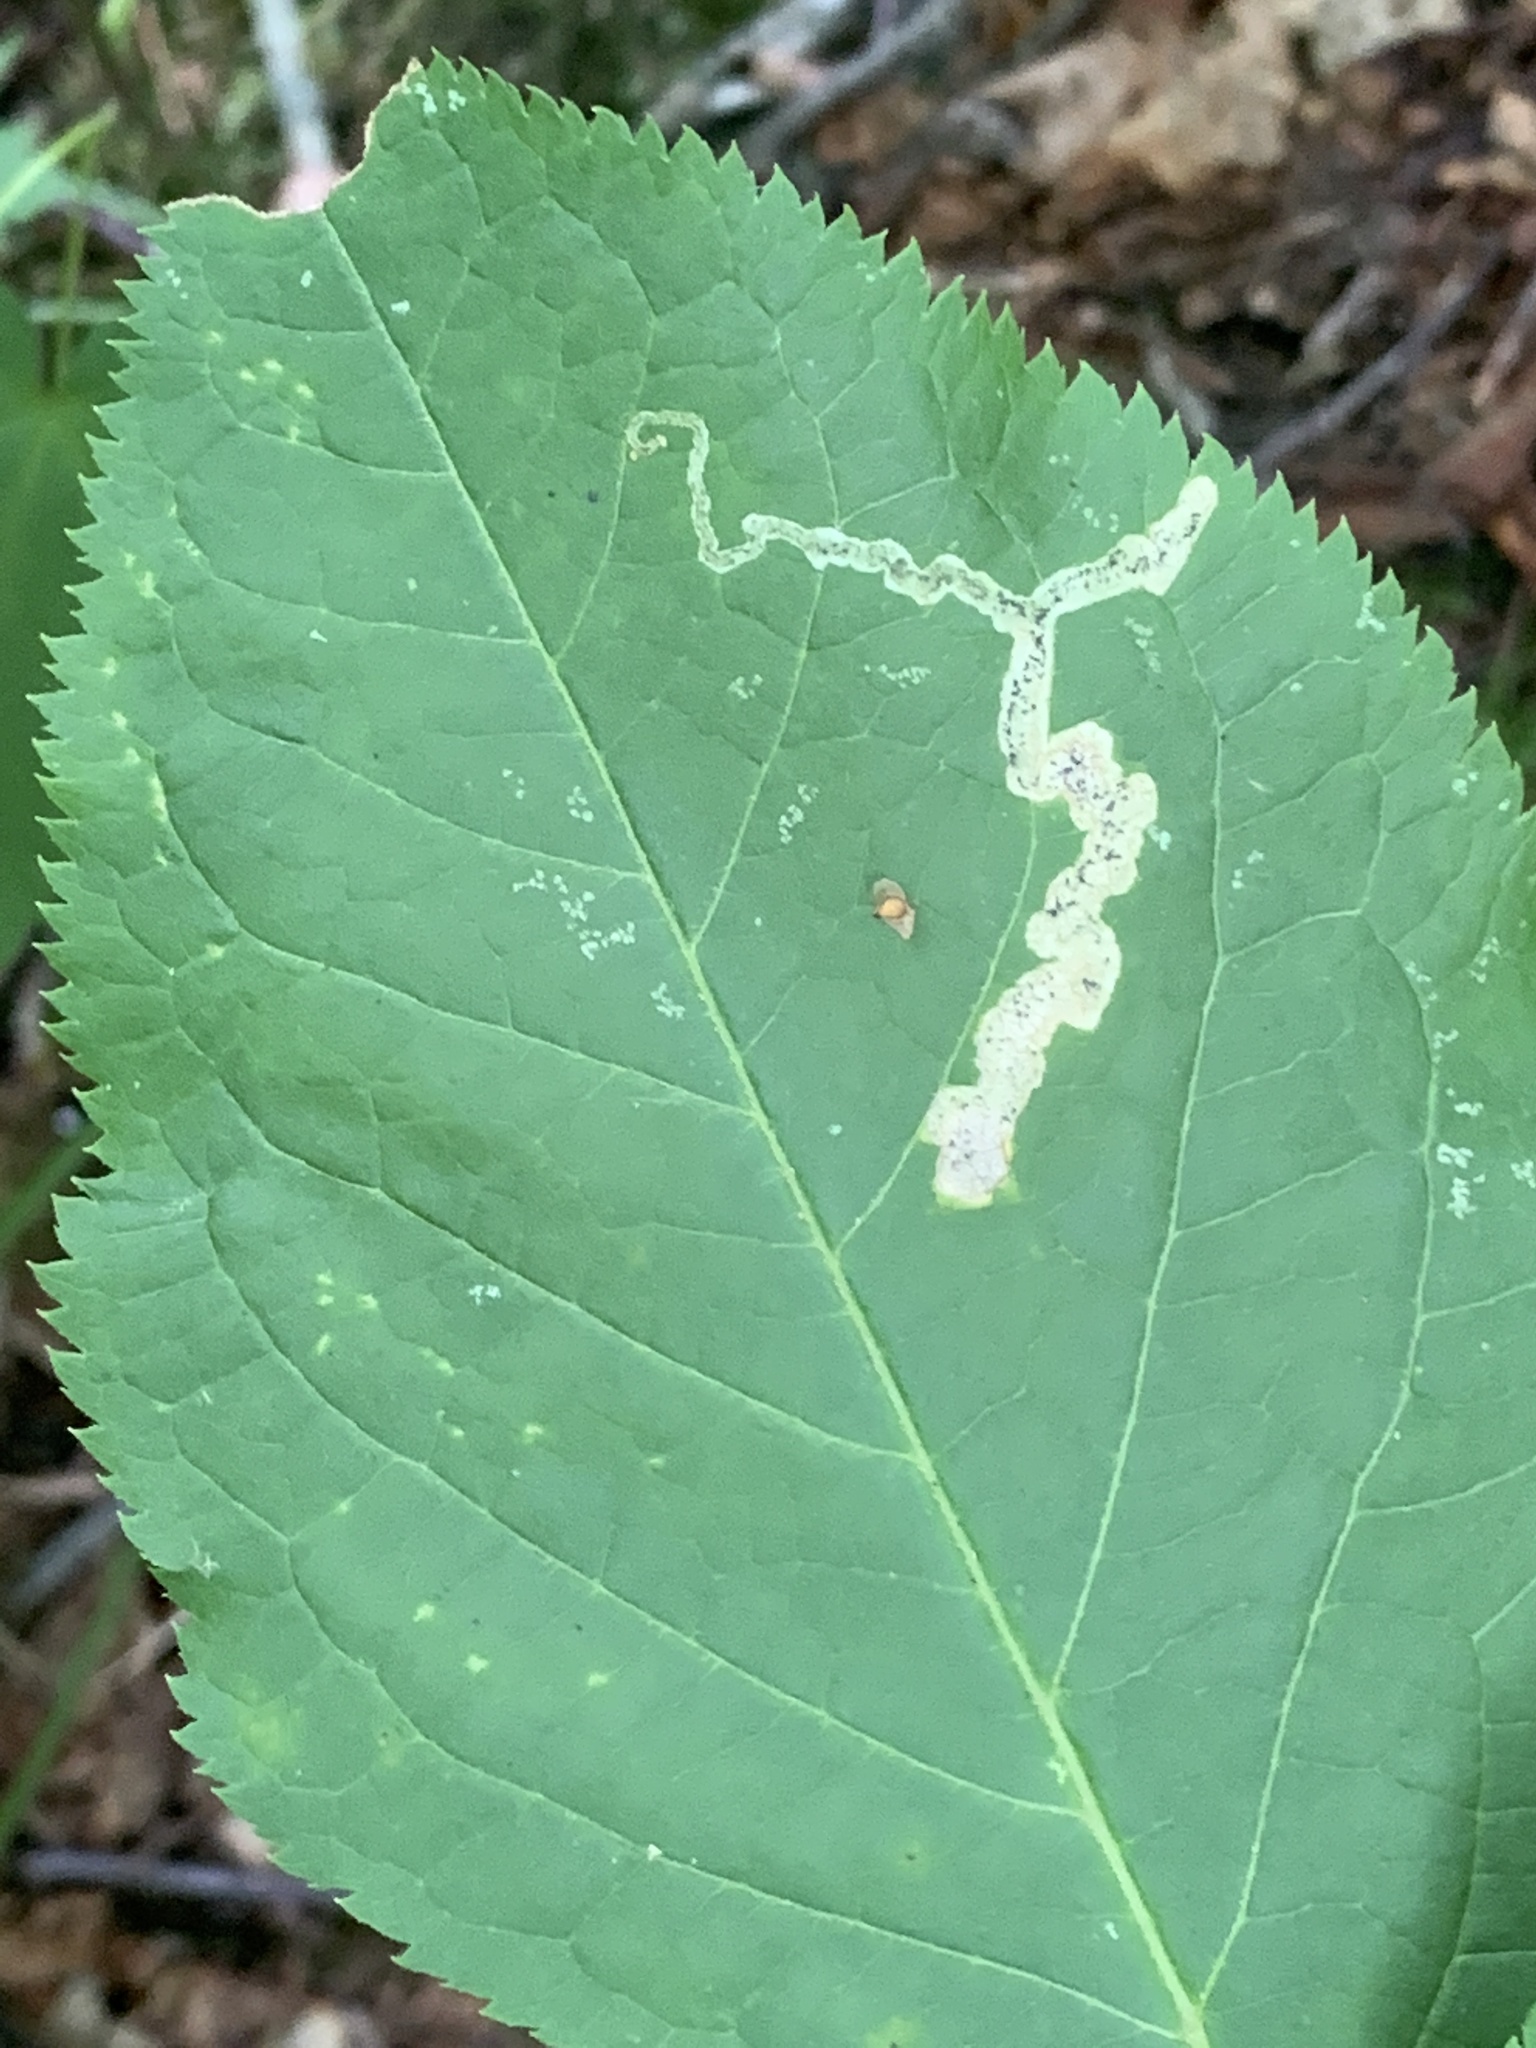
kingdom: Animalia
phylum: Arthropoda
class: Insecta
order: Diptera
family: Agromyzidae
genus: Phytomyza
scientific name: Phytomyza aralivora
